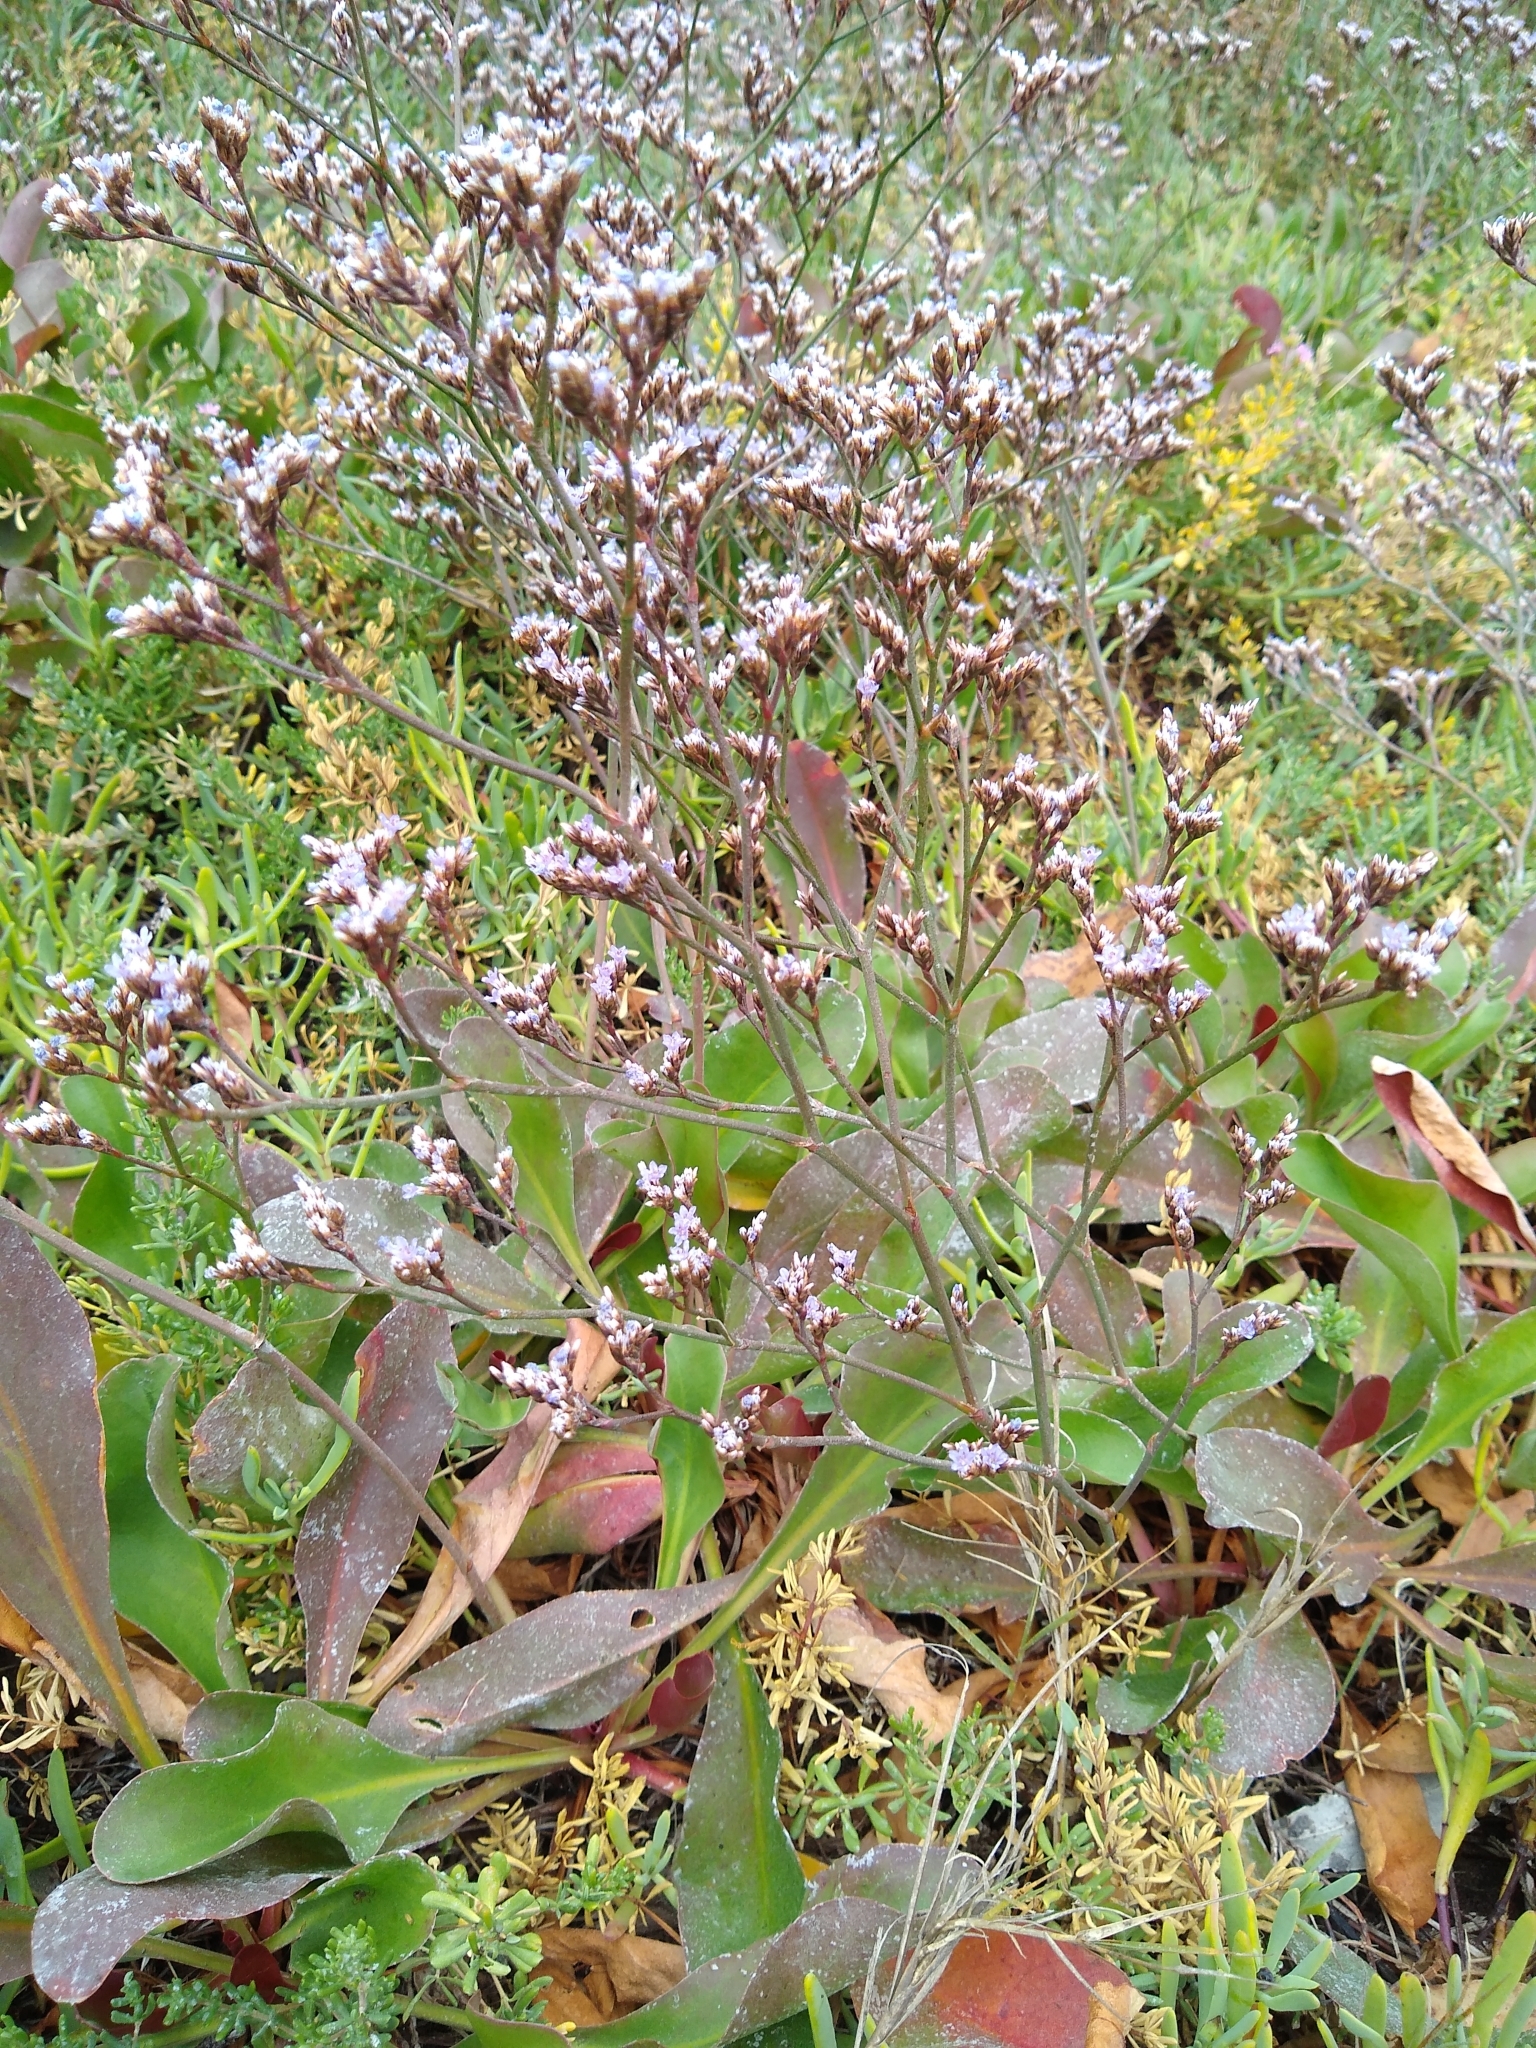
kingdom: Plantae
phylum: Tracheophyta
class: Magnoliopsida
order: Caryophyllales
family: Plumbaginaceae
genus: Limonium
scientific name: Limonium californicum
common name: Marsh-rosemary
